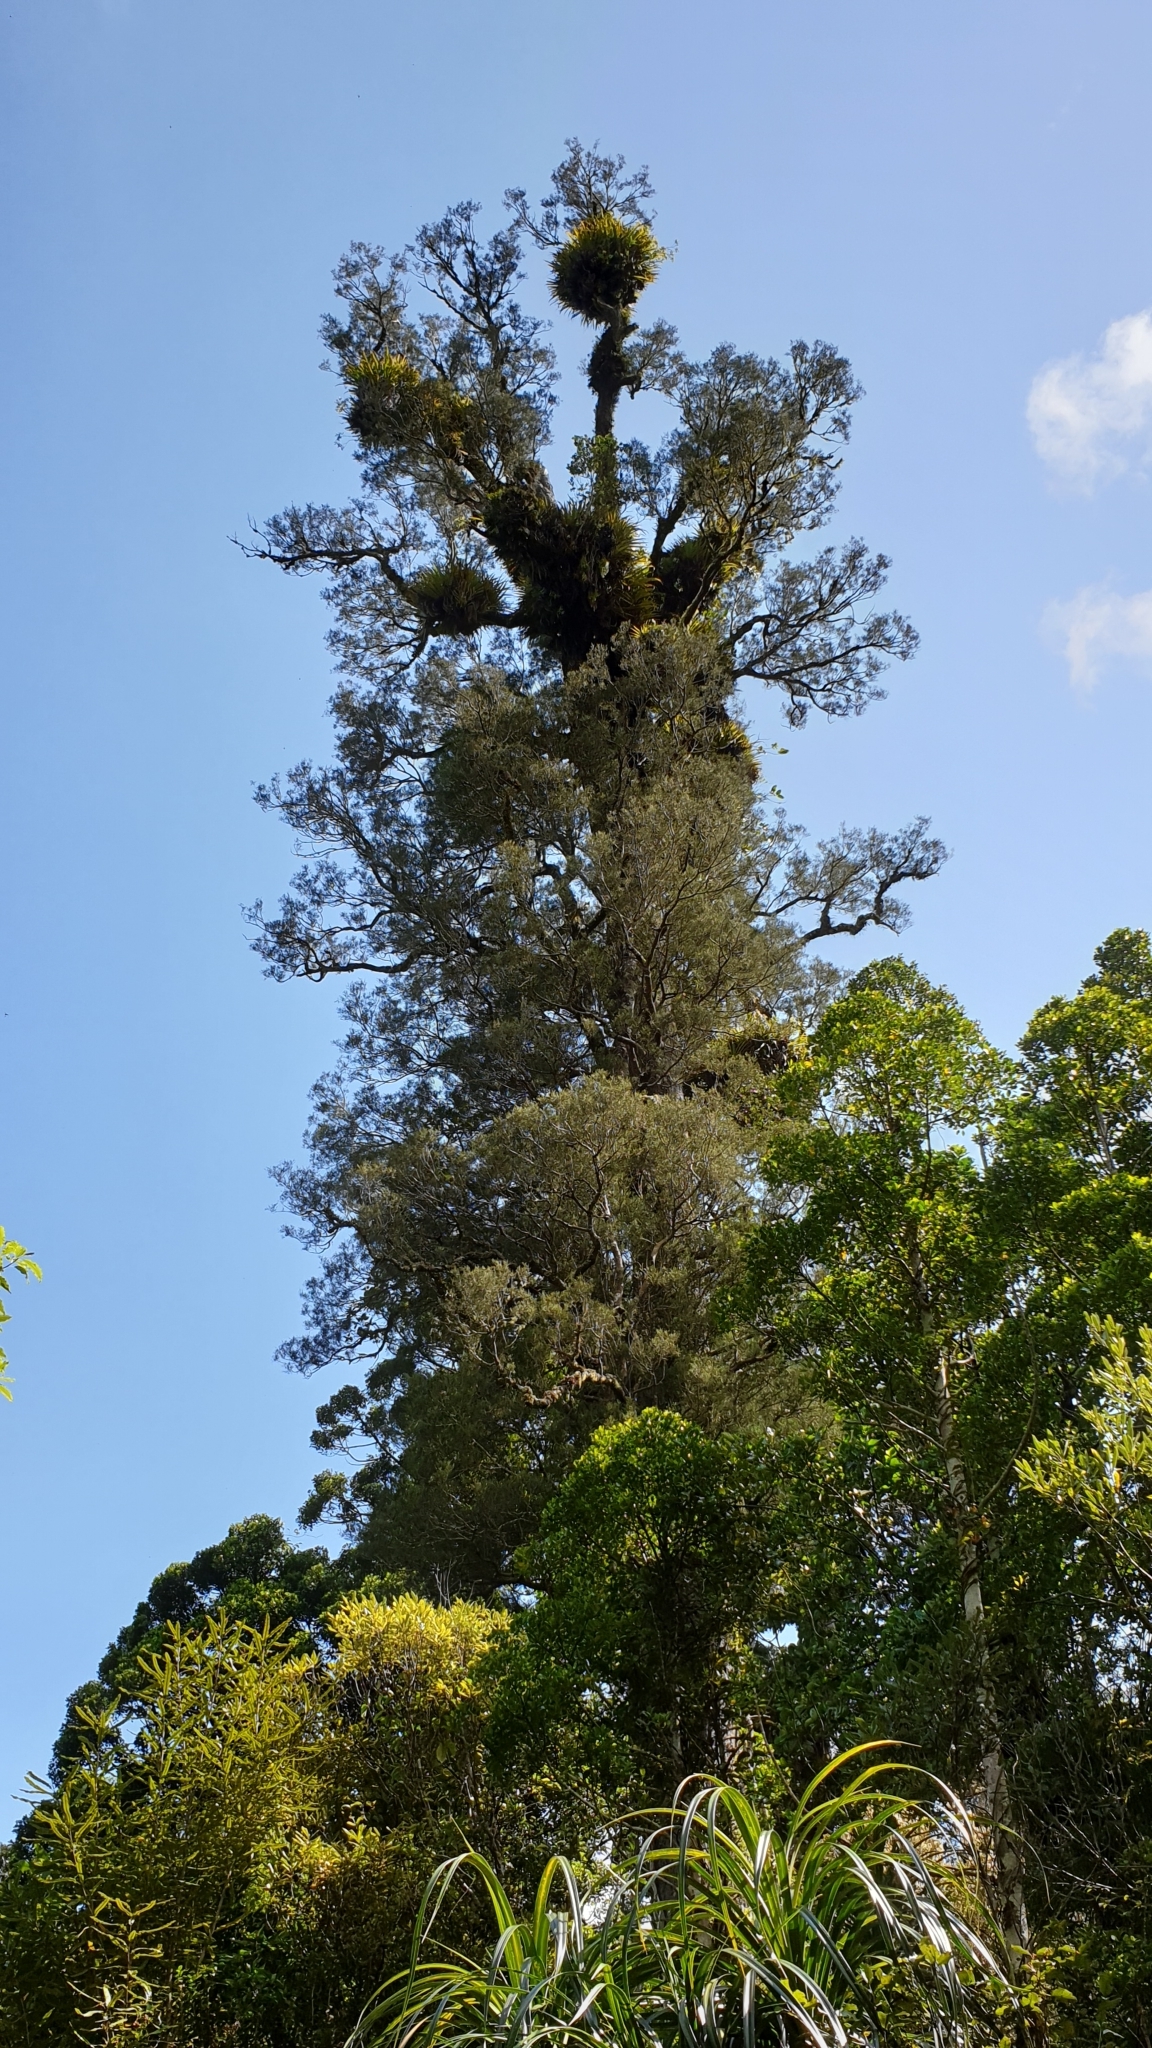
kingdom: Plantae
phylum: Tracheophyta
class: Pinopsida
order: Pinales
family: Podocarpaceae
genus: Dacrycarpus
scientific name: Dacrycarpus dacrydioides
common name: White pine
